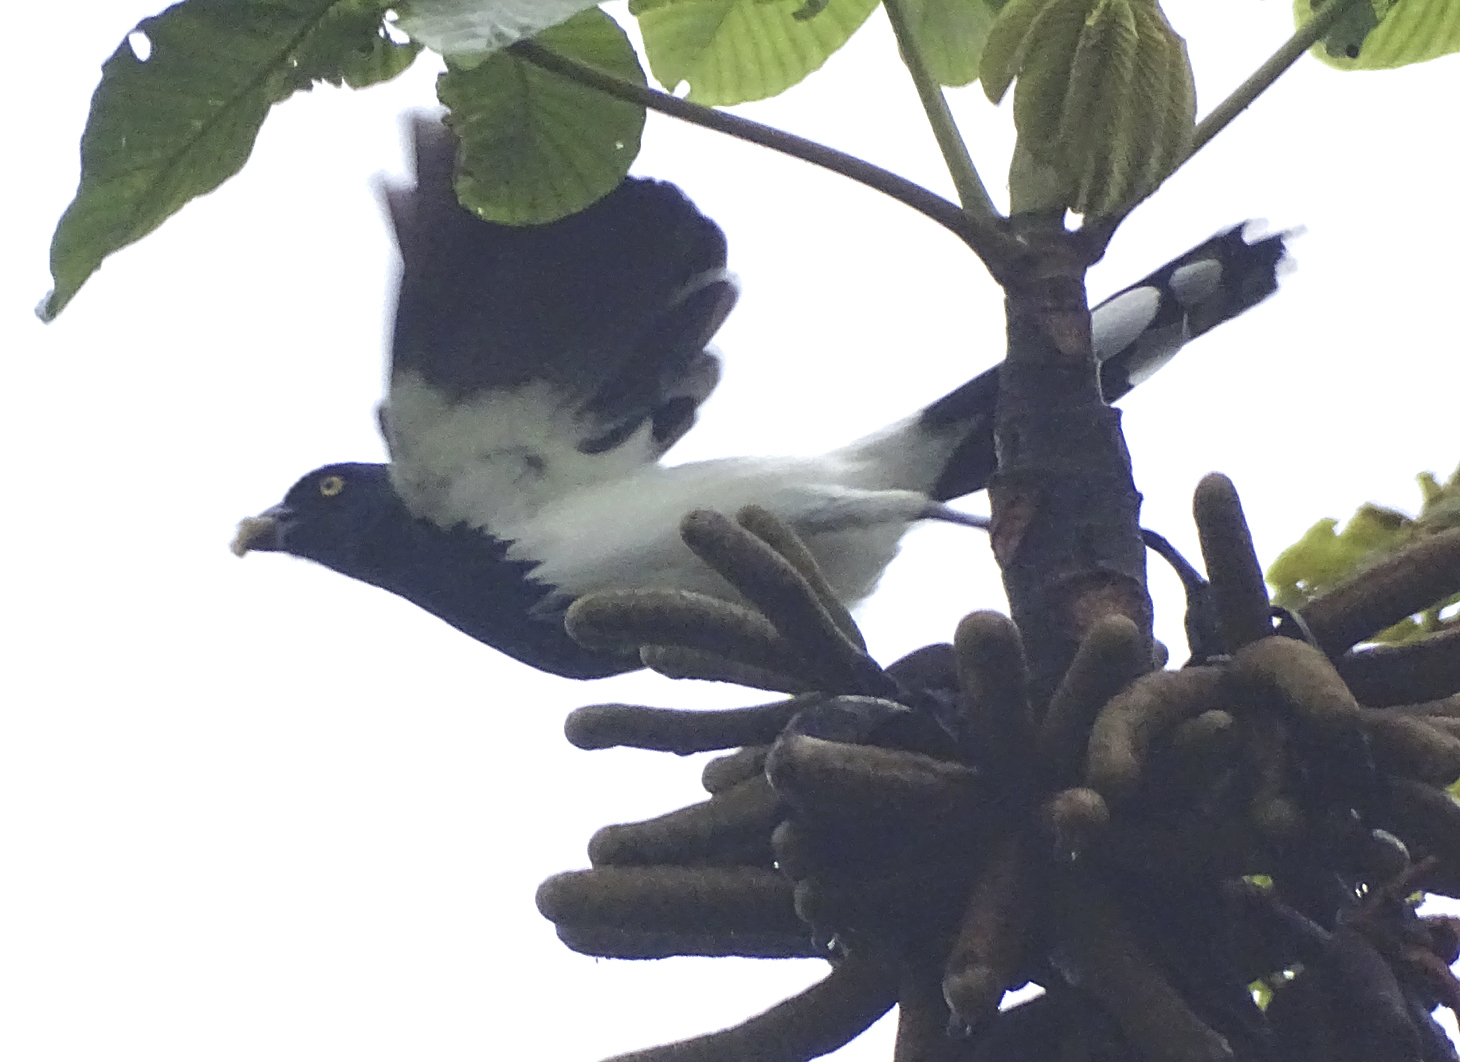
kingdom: Animalia
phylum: Chordata
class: Aves
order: Passeriformes
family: Thraupidae
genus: Cissopis
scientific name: Cissopis leverianus
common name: Magpie tanager
